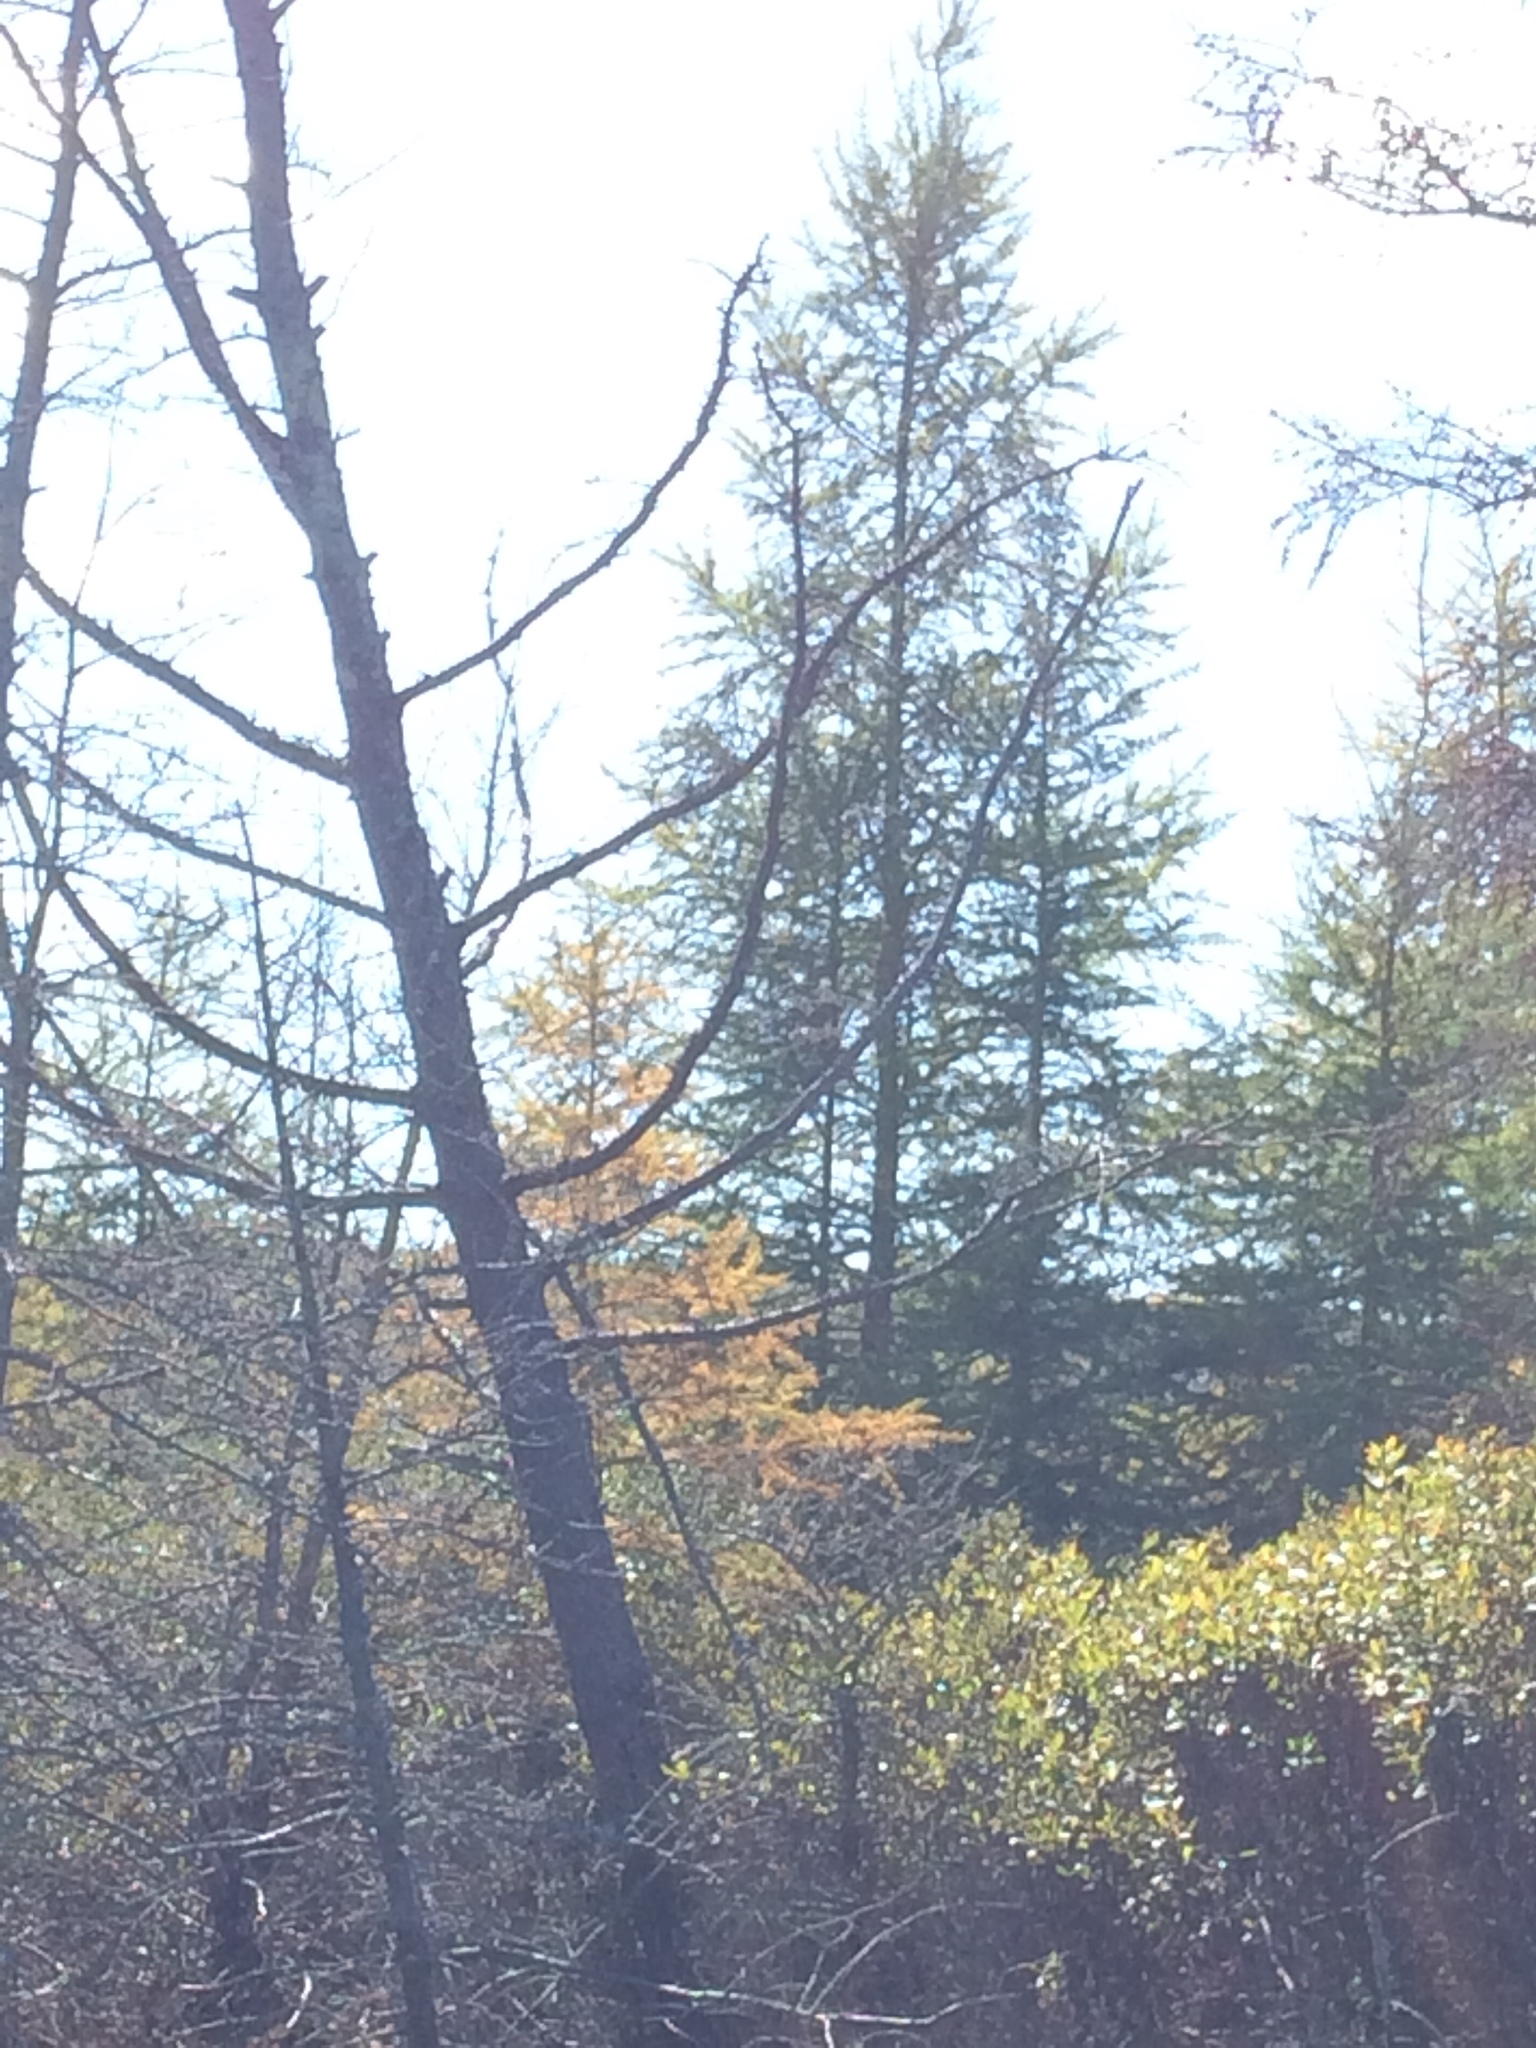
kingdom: Plantae
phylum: Tracheophyta
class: Pinopsida
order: Pinales
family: Pinaceae
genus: Larix
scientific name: Larix laricina
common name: American larch
